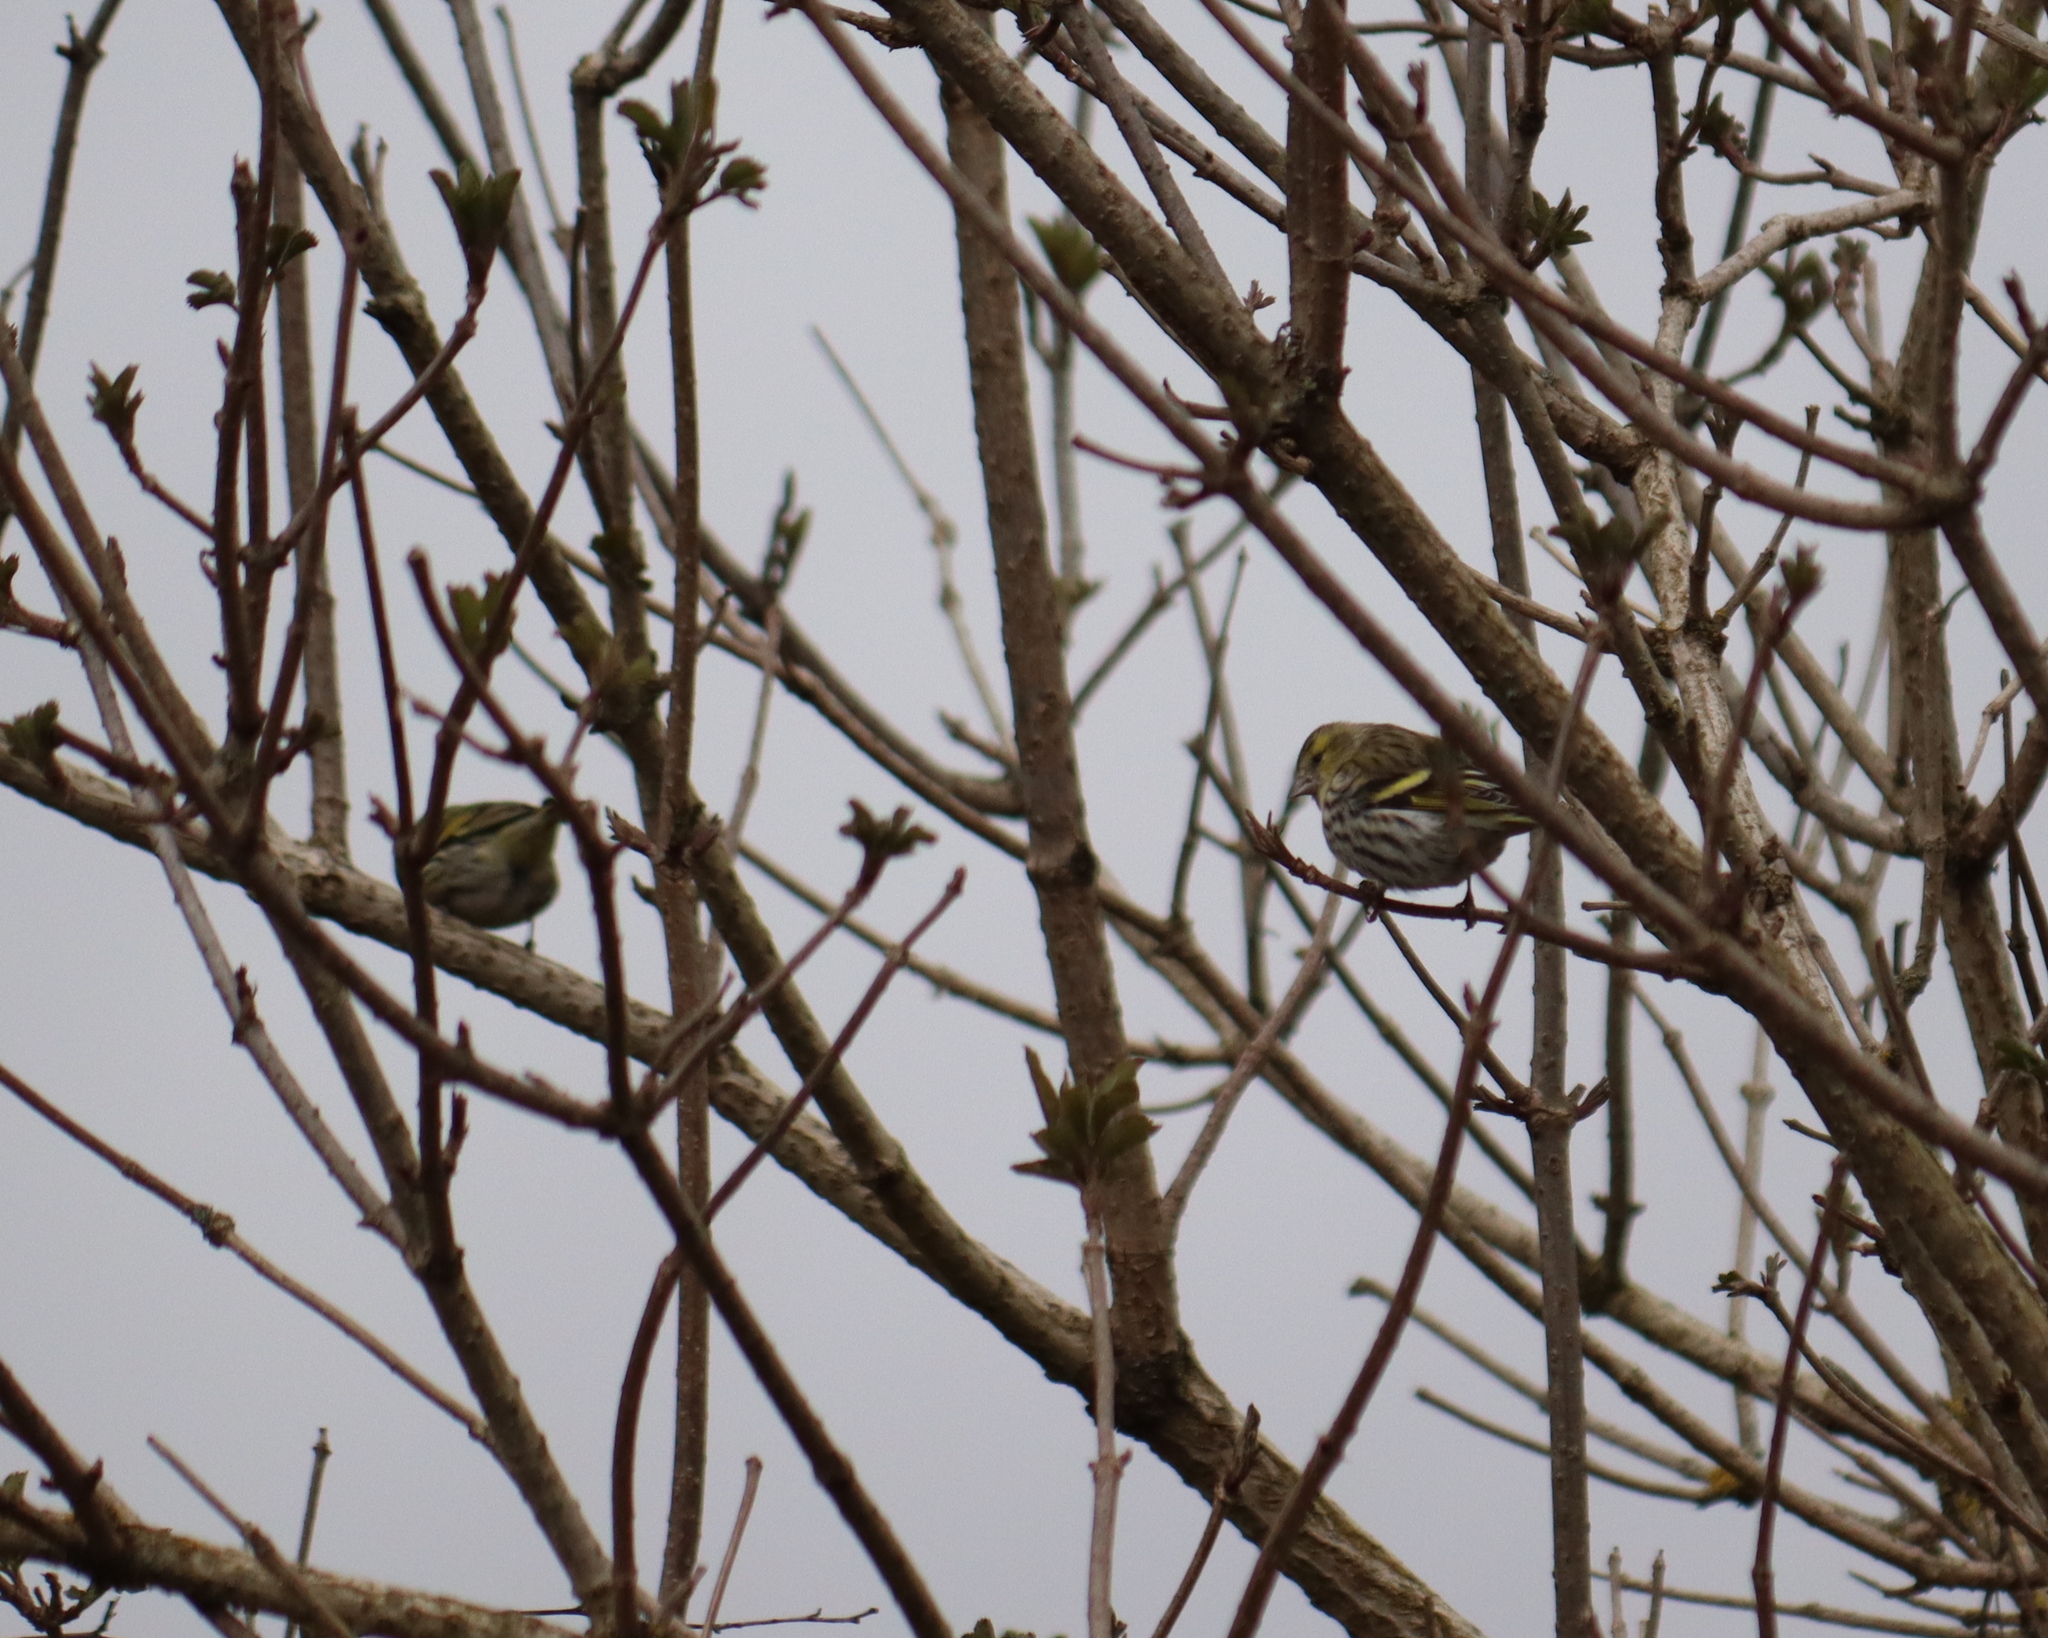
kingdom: Animalia
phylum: Chordata
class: Aves
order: Passeriformes
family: Fringillidae
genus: Spinus
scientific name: Spinus spinus
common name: Eurasian siskin
